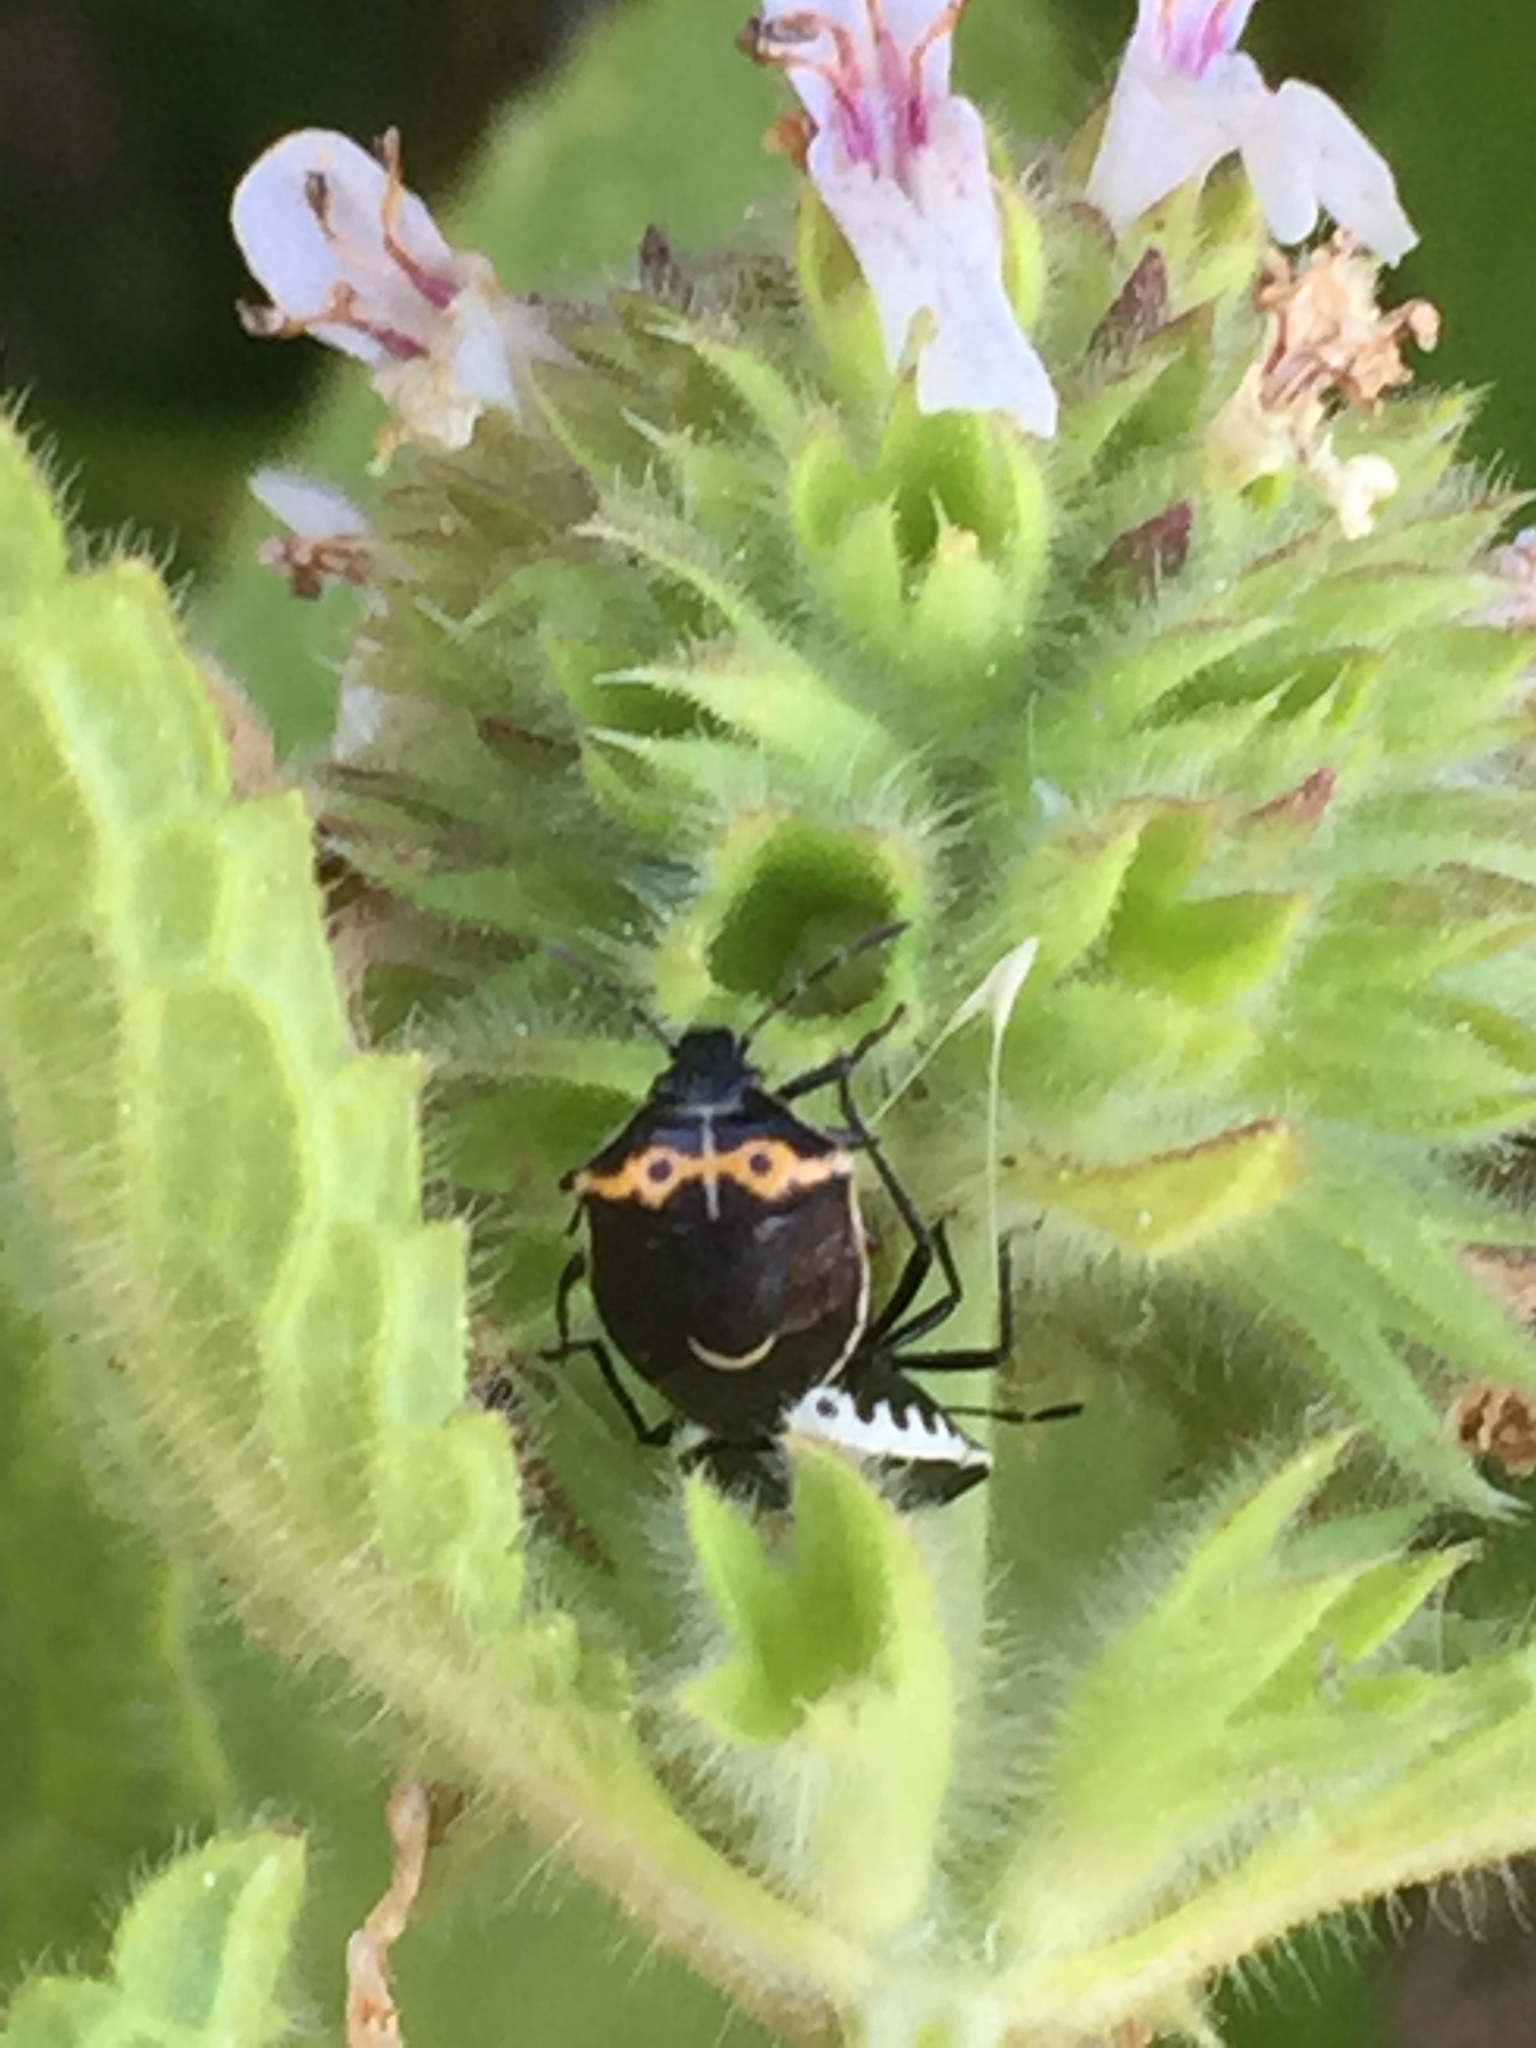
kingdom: Animalia
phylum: Arthropoda
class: Insecta
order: Hemiptera
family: Pentatomidae
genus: Cosmopepla
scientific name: Cosmopepla conspicillaris
